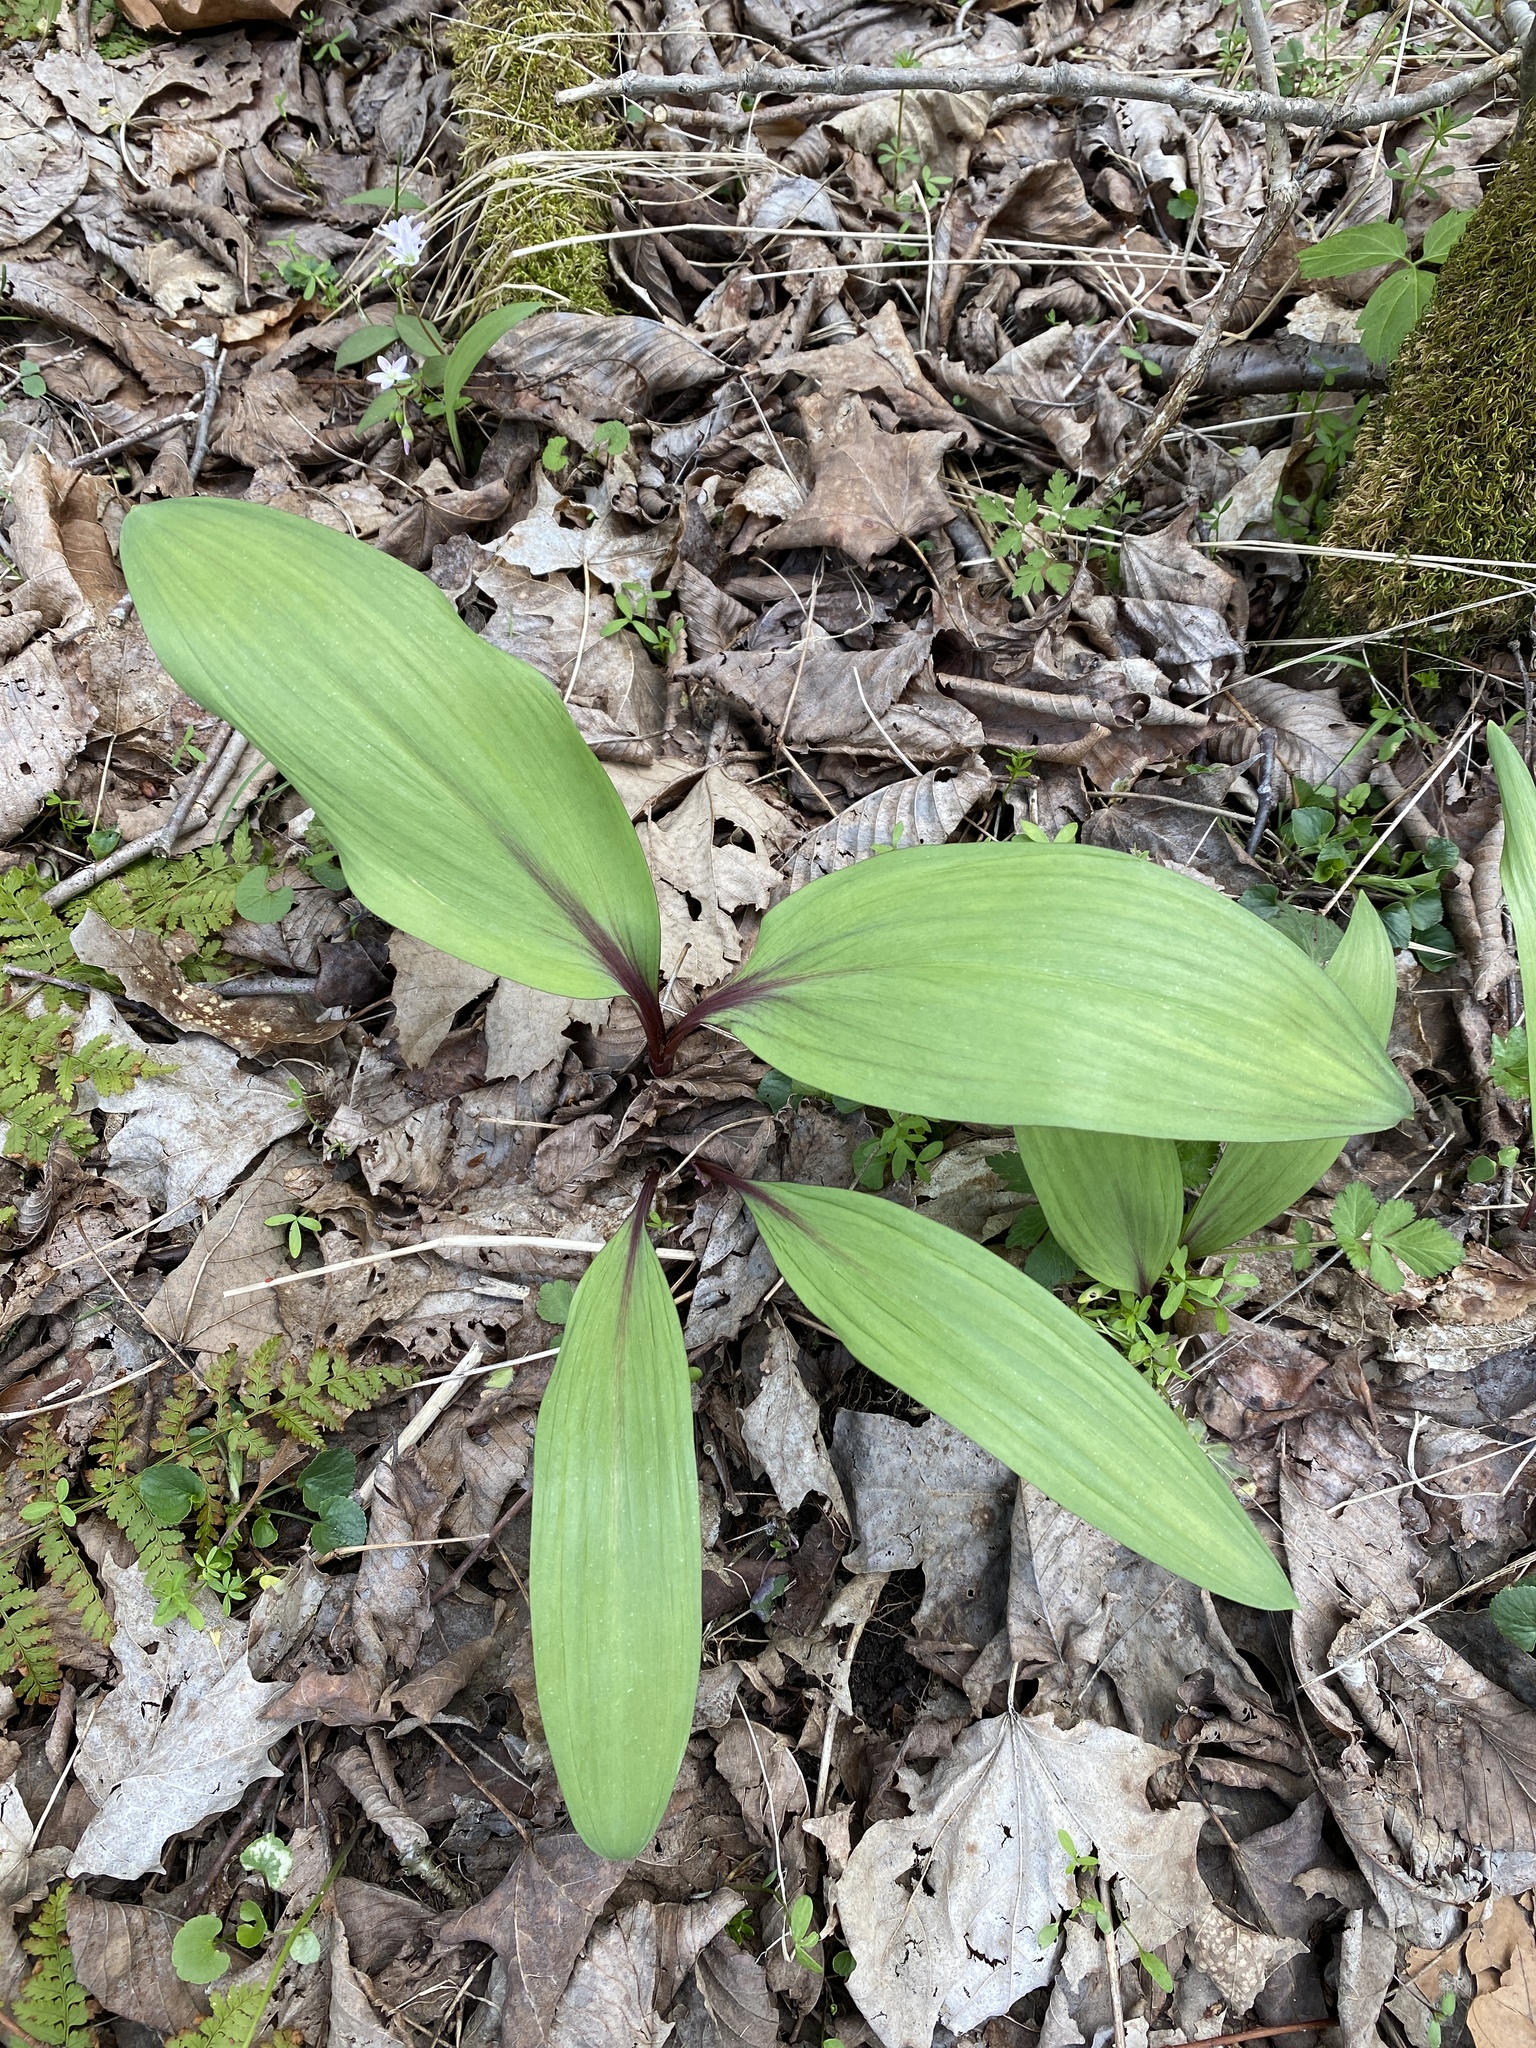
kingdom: Plantae
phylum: Tracheophyta
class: Liliopsida
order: Asparagales
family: Amaryllidaceae
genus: Allium
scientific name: Allium tricoccum
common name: Ramp
